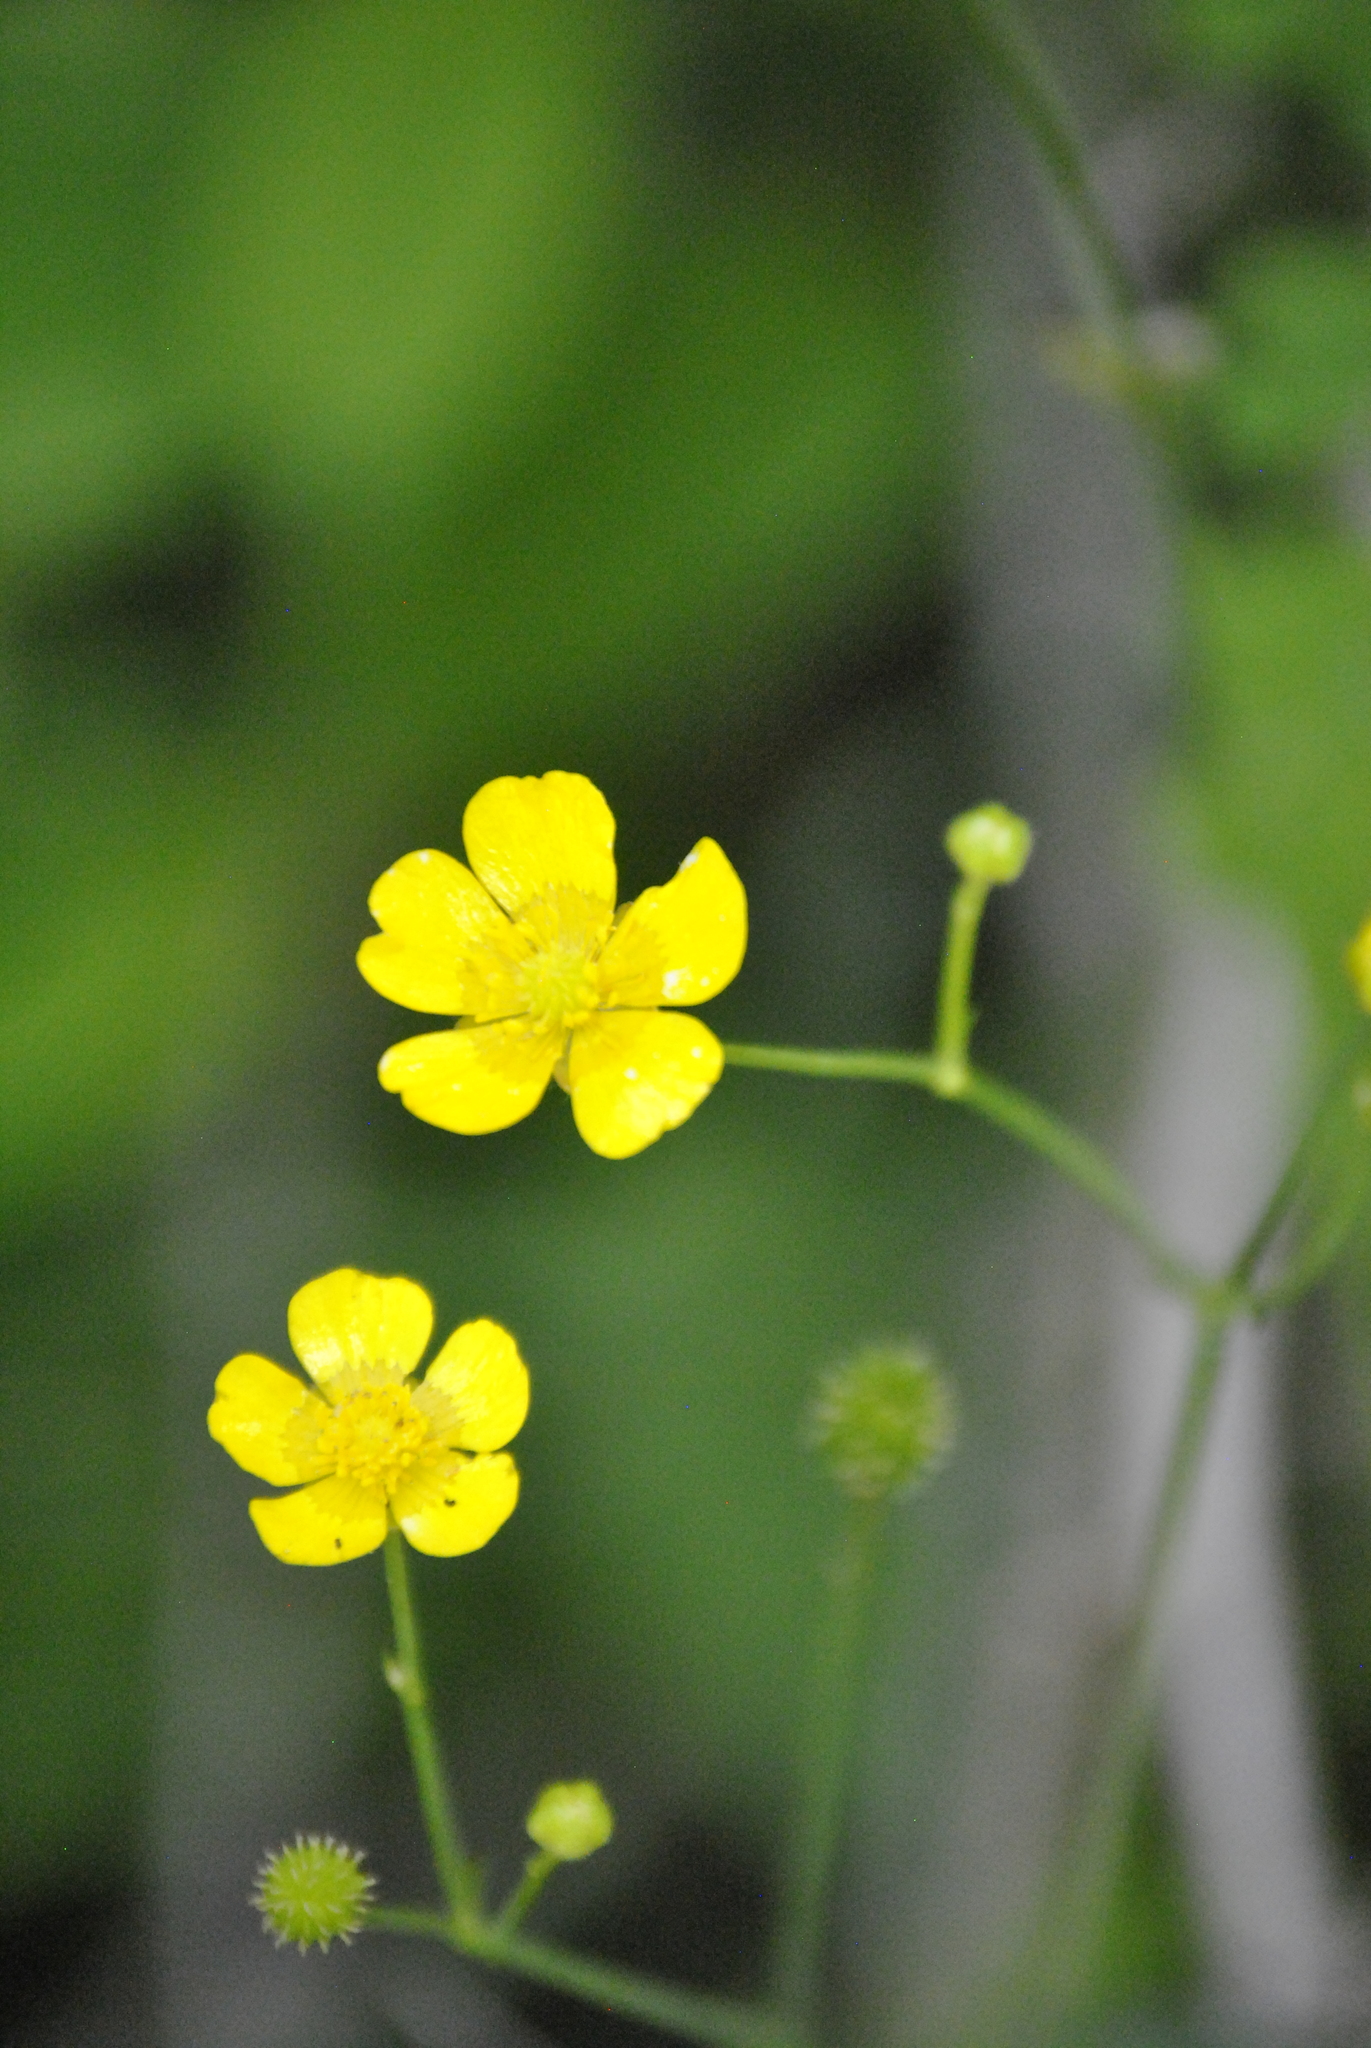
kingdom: Plantae
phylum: Tracheophyta
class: Magnoliopsida
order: Ranunculales
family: Ranunculaceae
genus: Ranunculus
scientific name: Ranunculus acris
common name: Meadow buttercup
